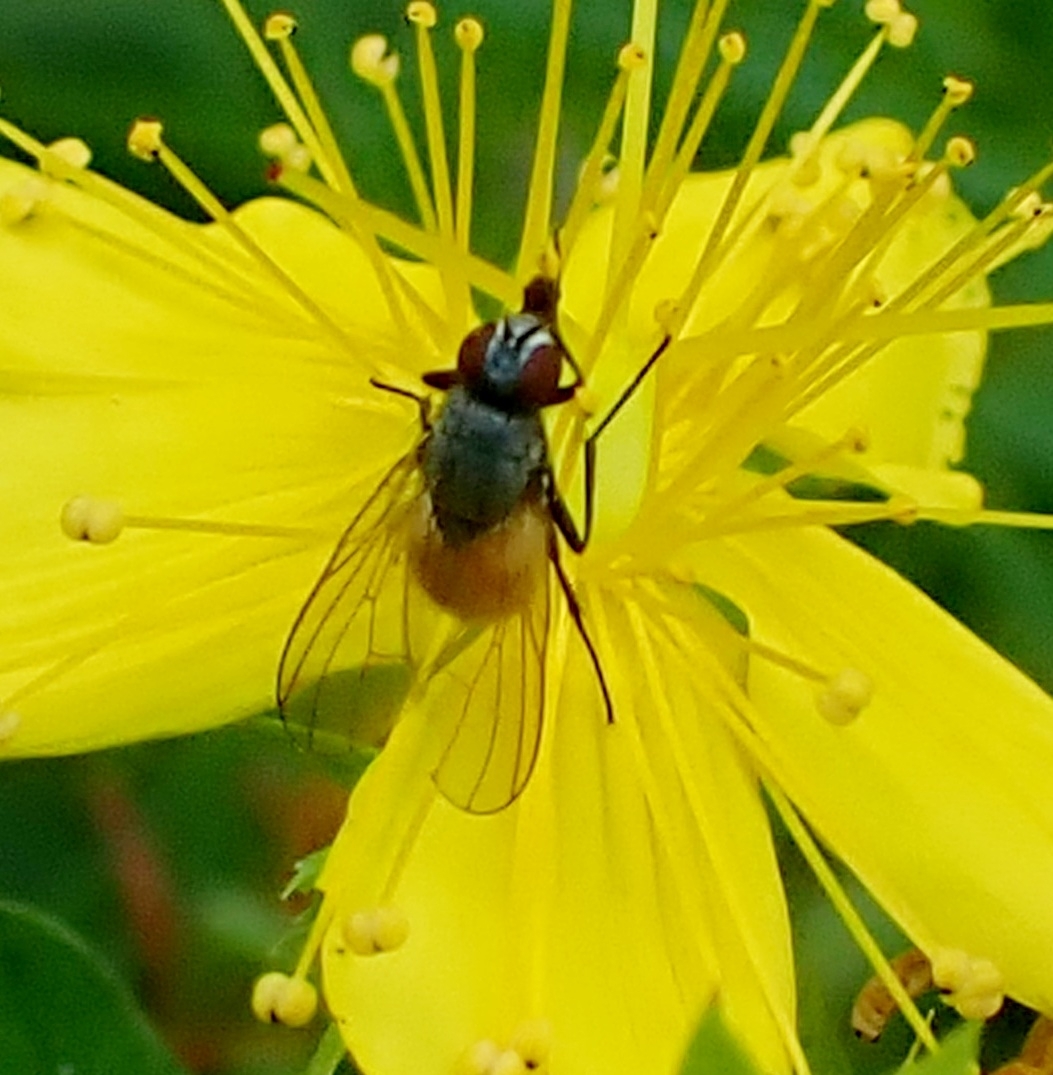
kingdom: Animalia
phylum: Arthropoda
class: Insecta
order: Diptera
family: Muscidae
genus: Thricops
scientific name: Thricops semicinereus
